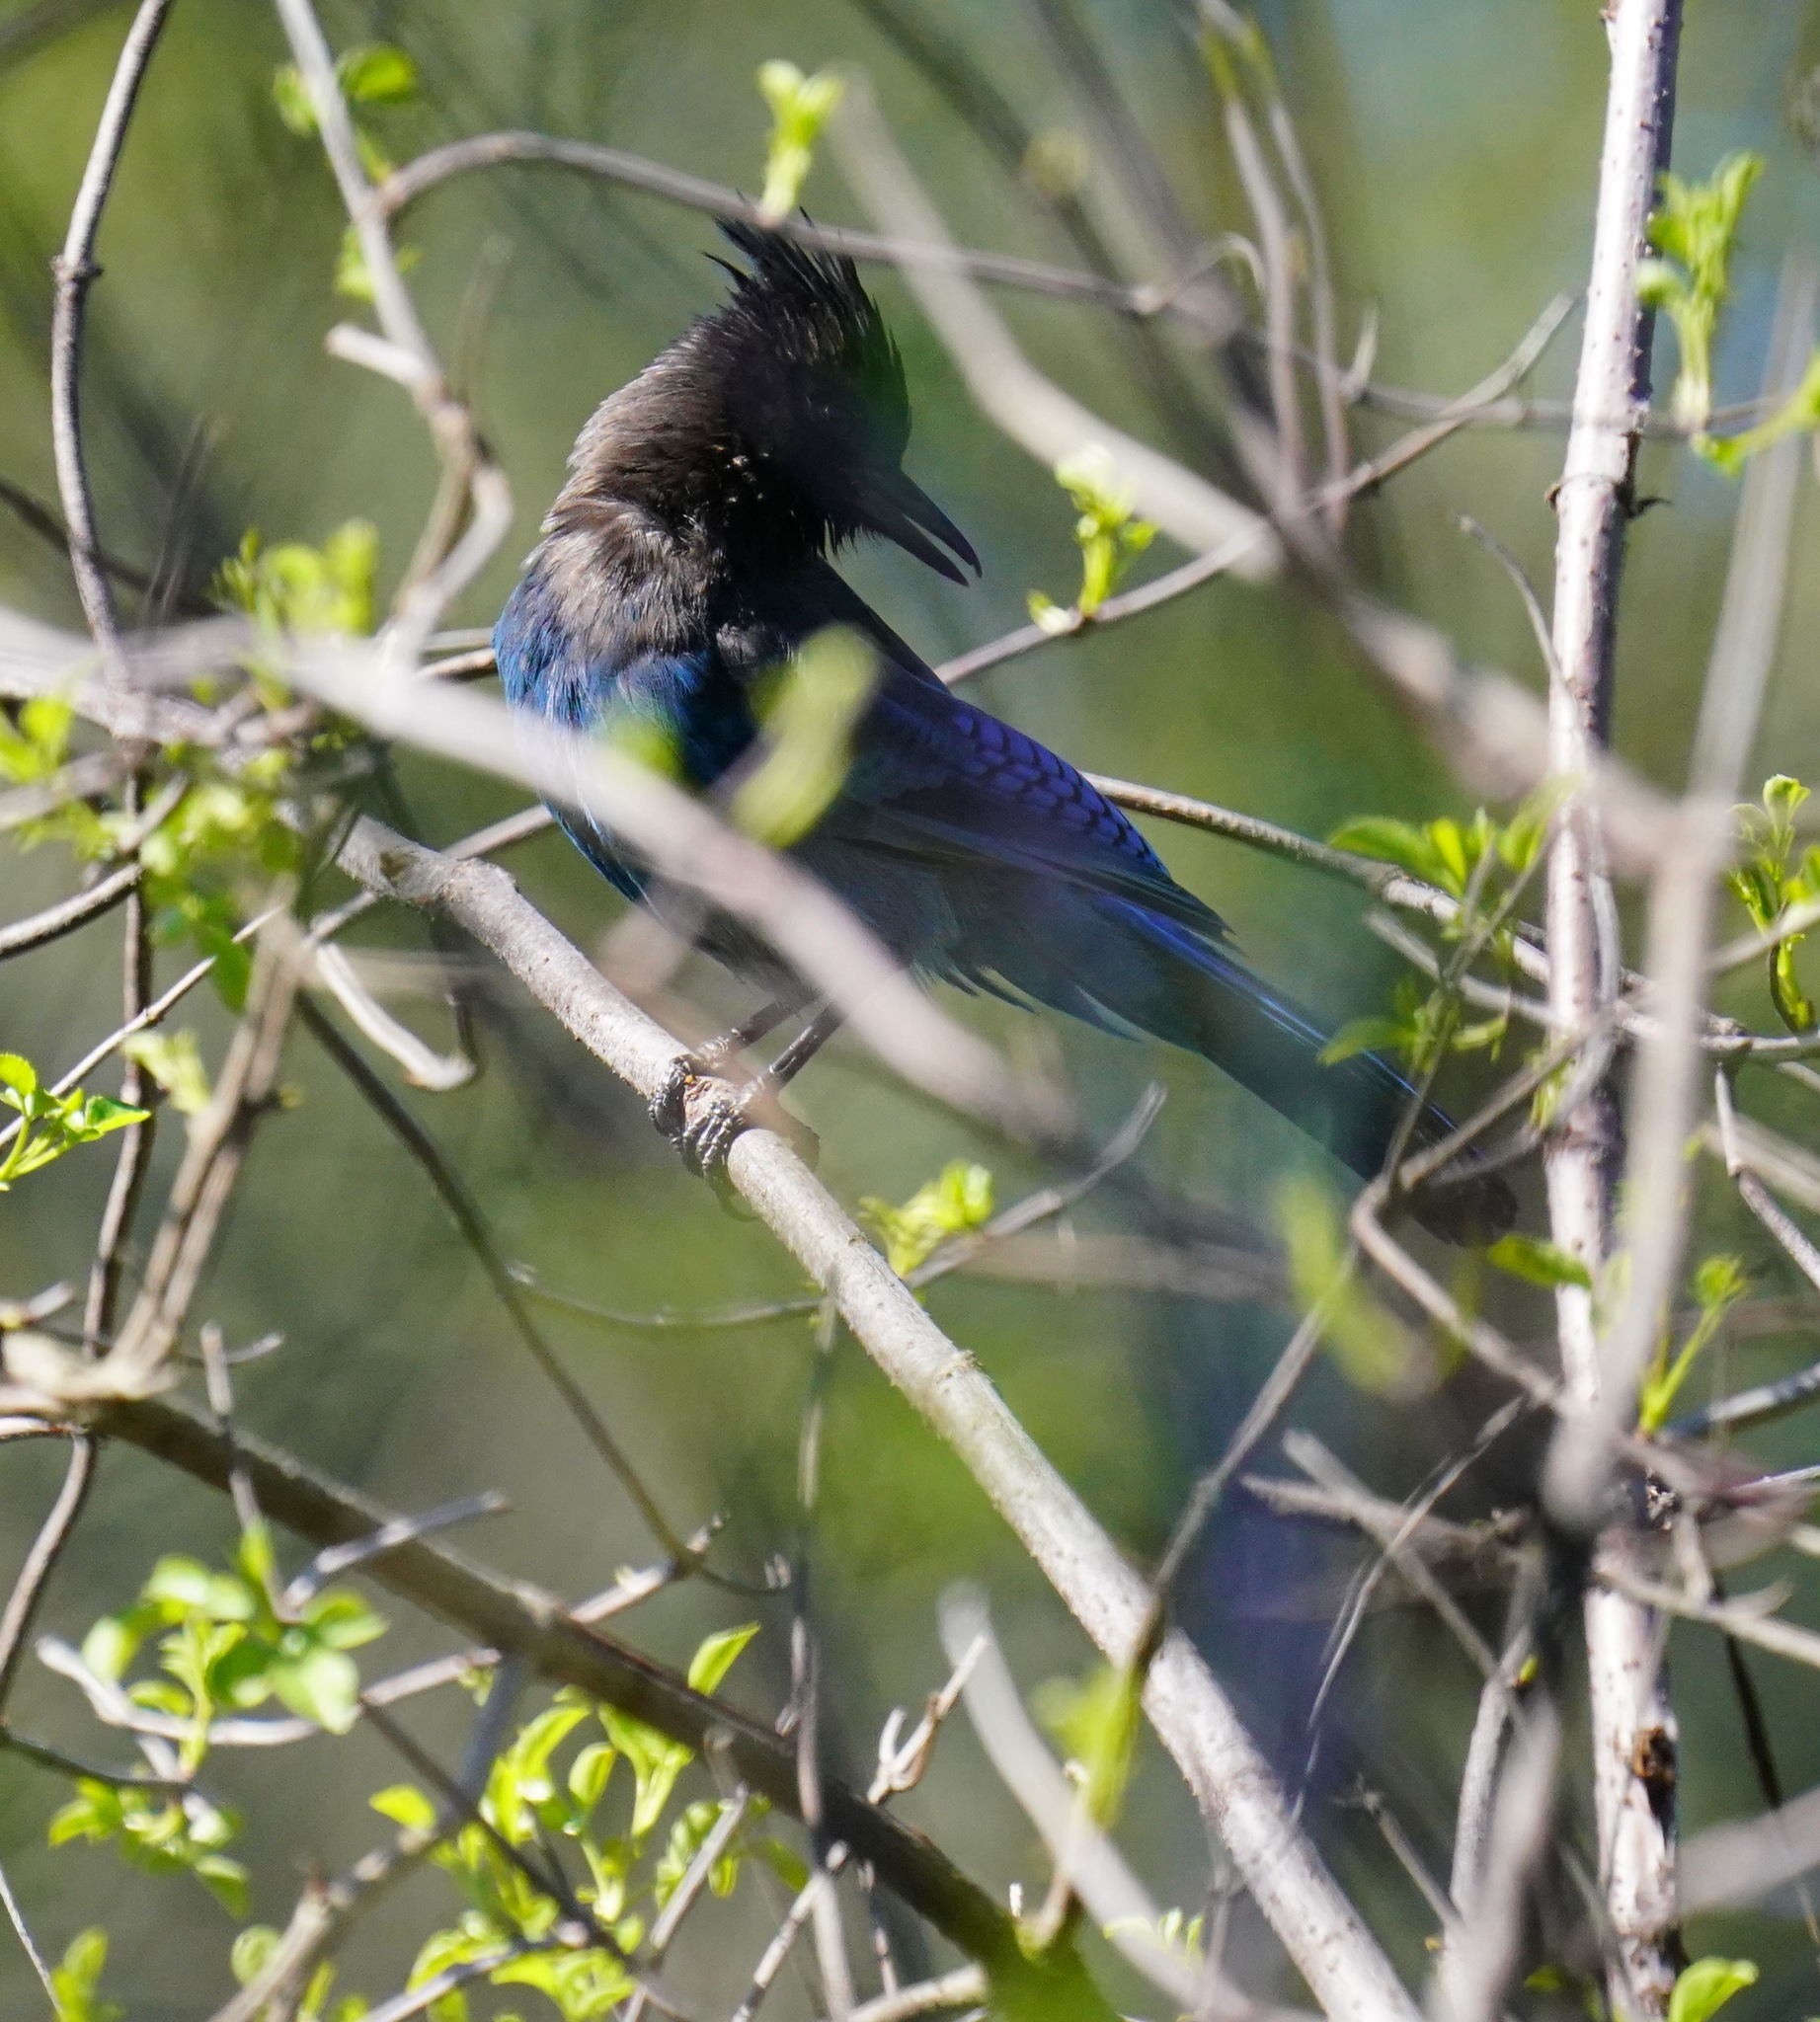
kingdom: Animalia
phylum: Chordata
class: Aves
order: Passeriformes
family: Corvidae
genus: Cyanocitta
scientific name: Cyanocitta stelleri
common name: Steller's jay
